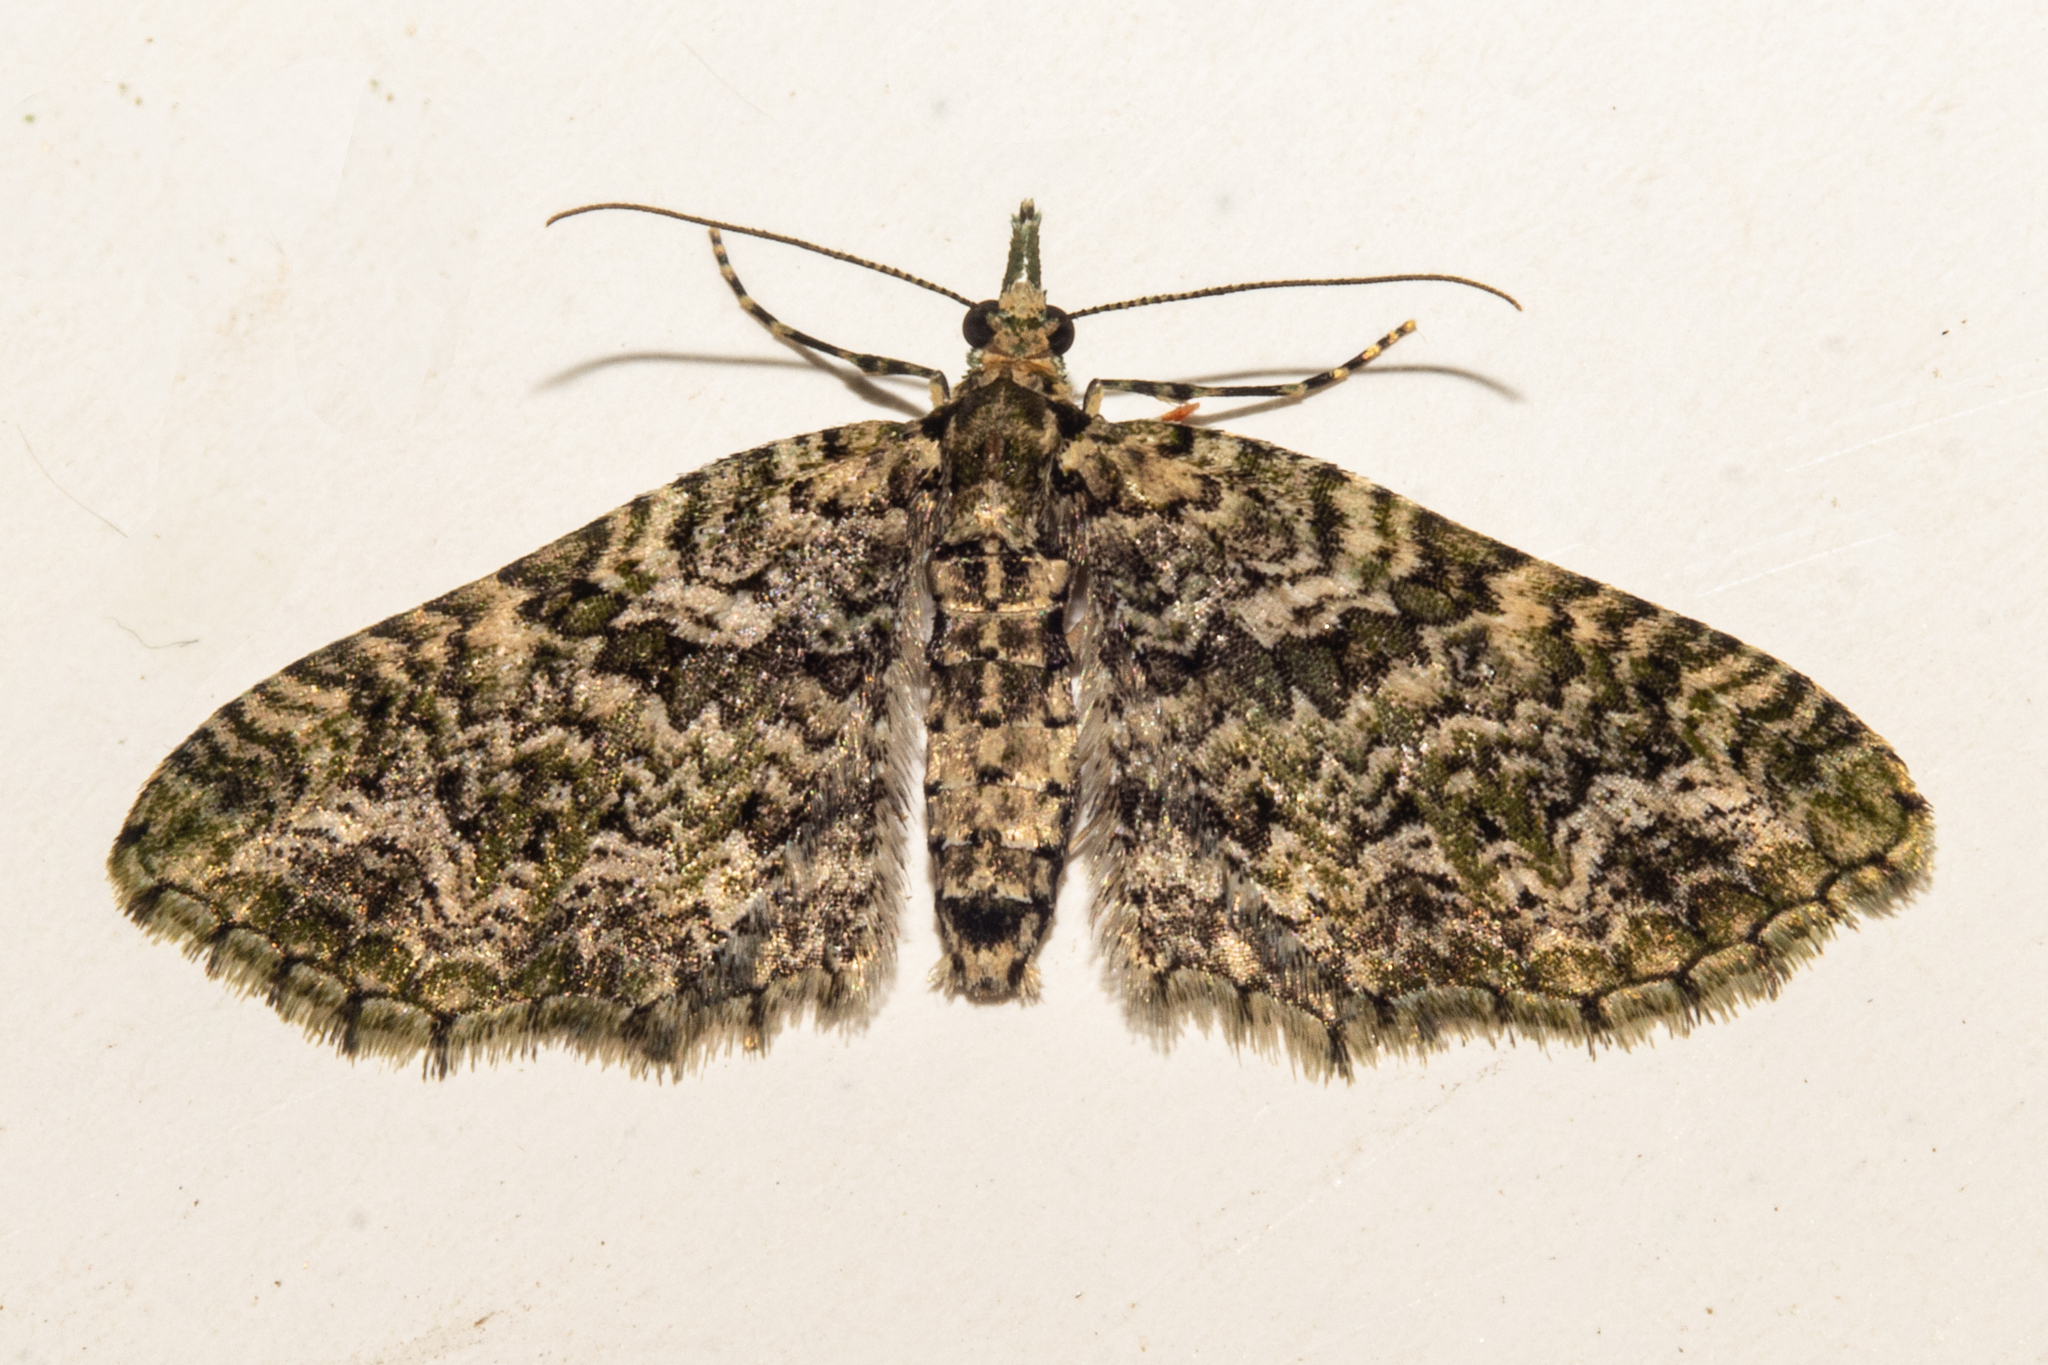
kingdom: Animalia
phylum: Arthropoda
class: Insecta
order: Lepidoptera
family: Geometridae
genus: Pasiphila
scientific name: Pasiphila muscosata
